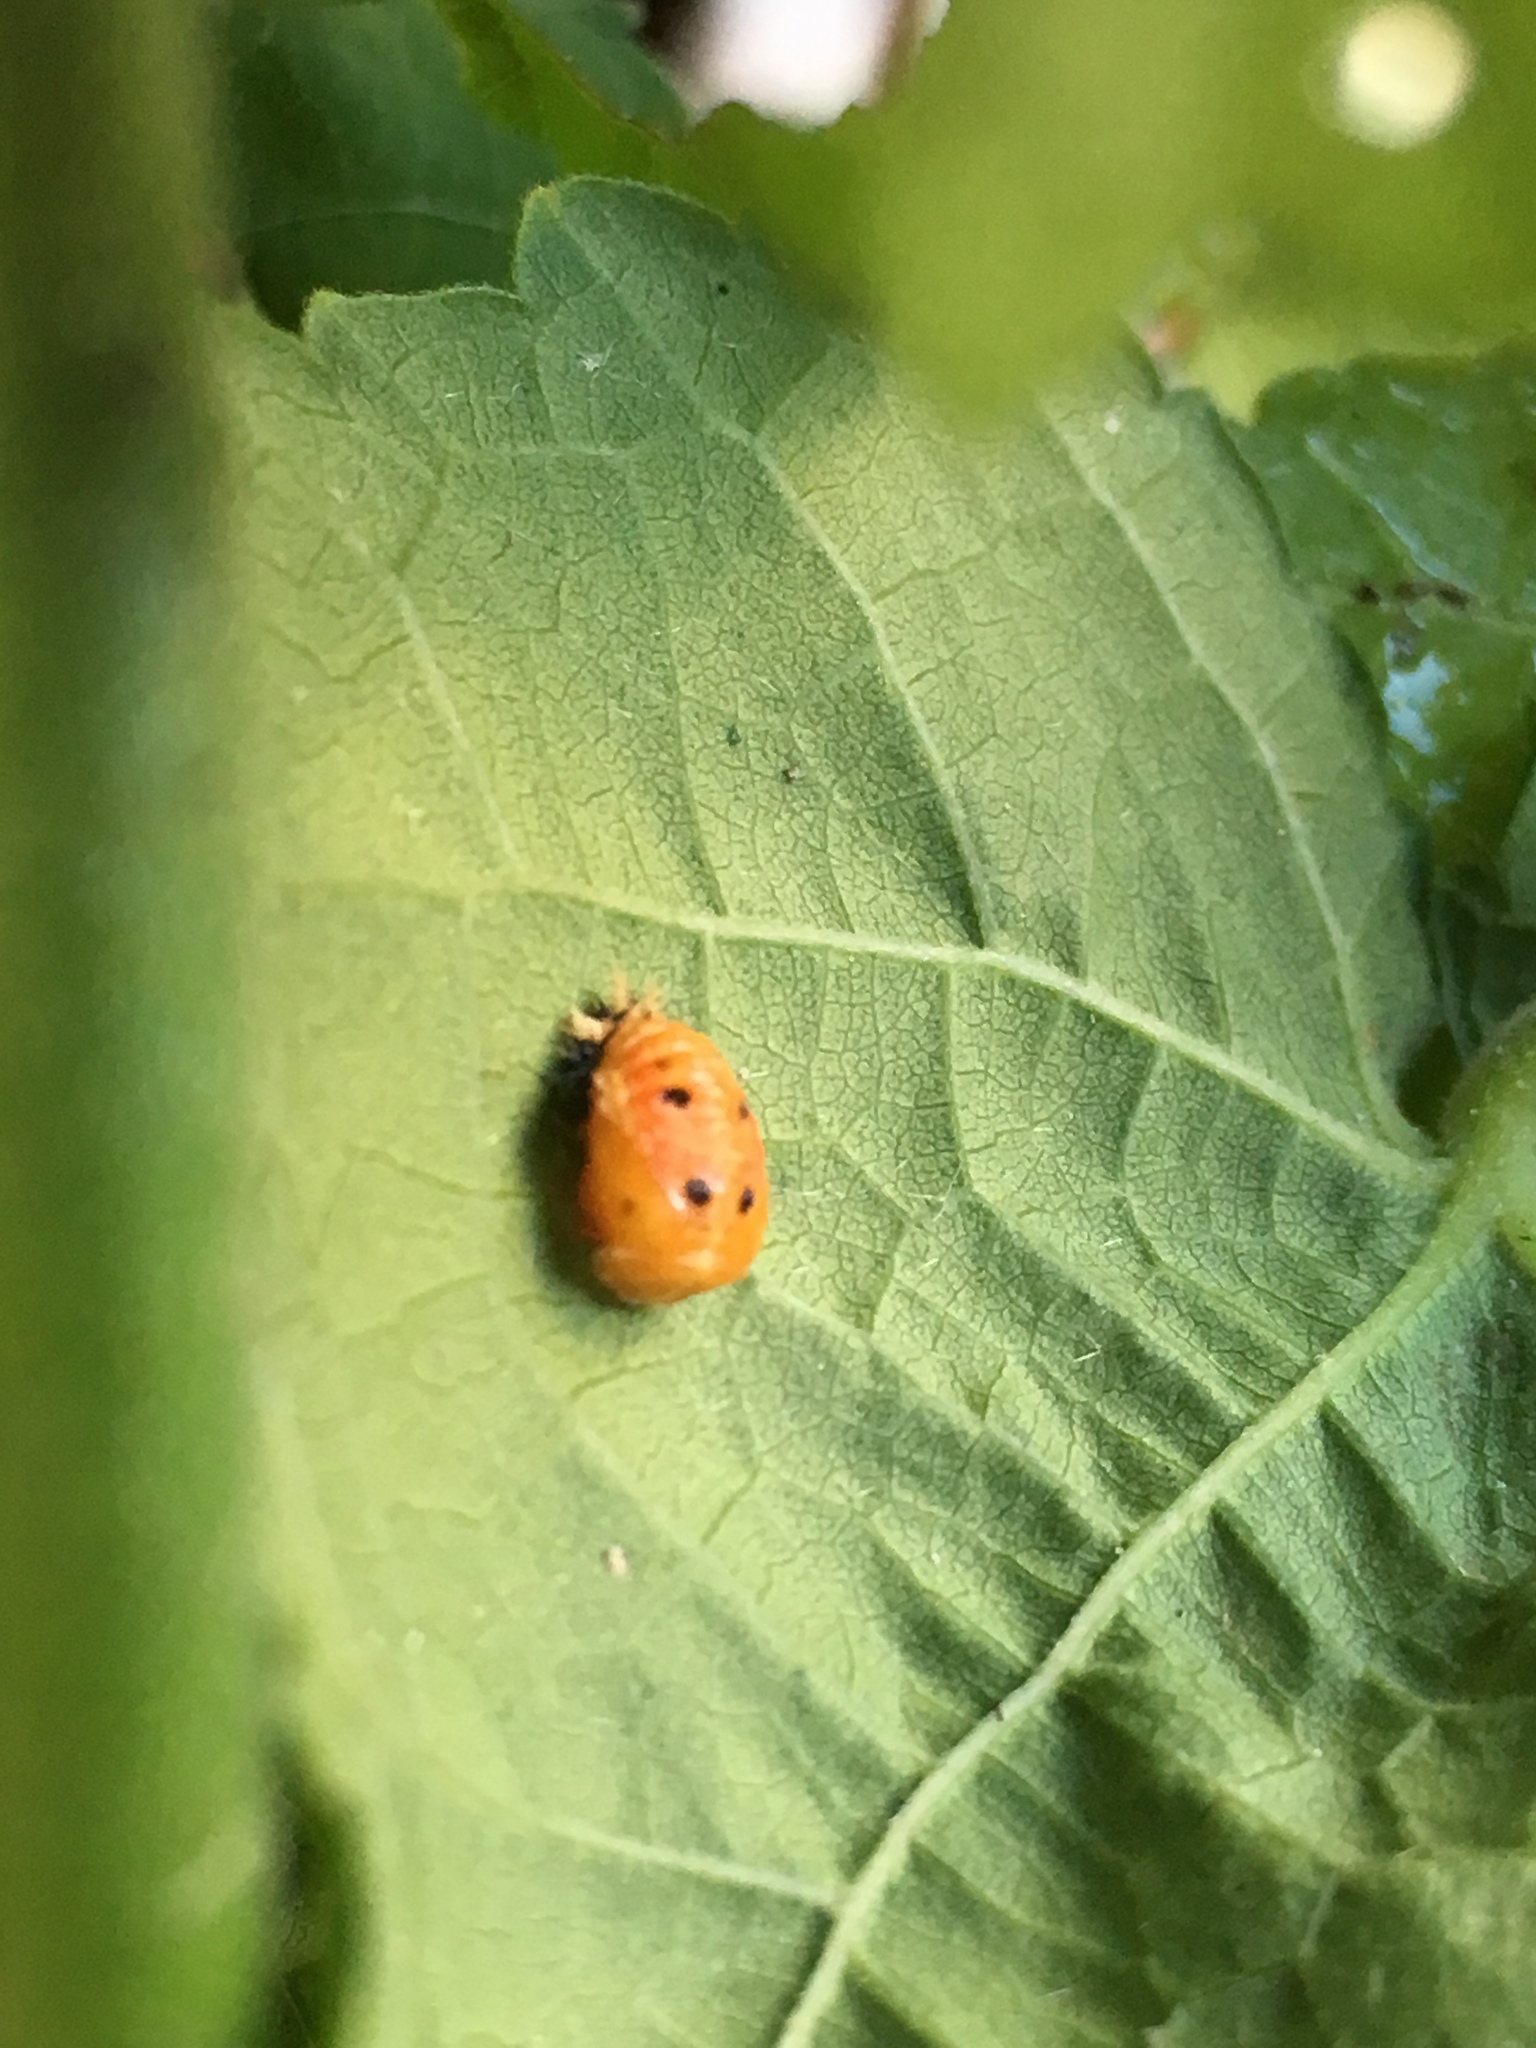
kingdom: Animalia
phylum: Arthropoda
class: Insecta
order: Coleoptera
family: Coccinellidae
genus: Harmonia
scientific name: Harmonia axyridis
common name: Harlequin ladybird
